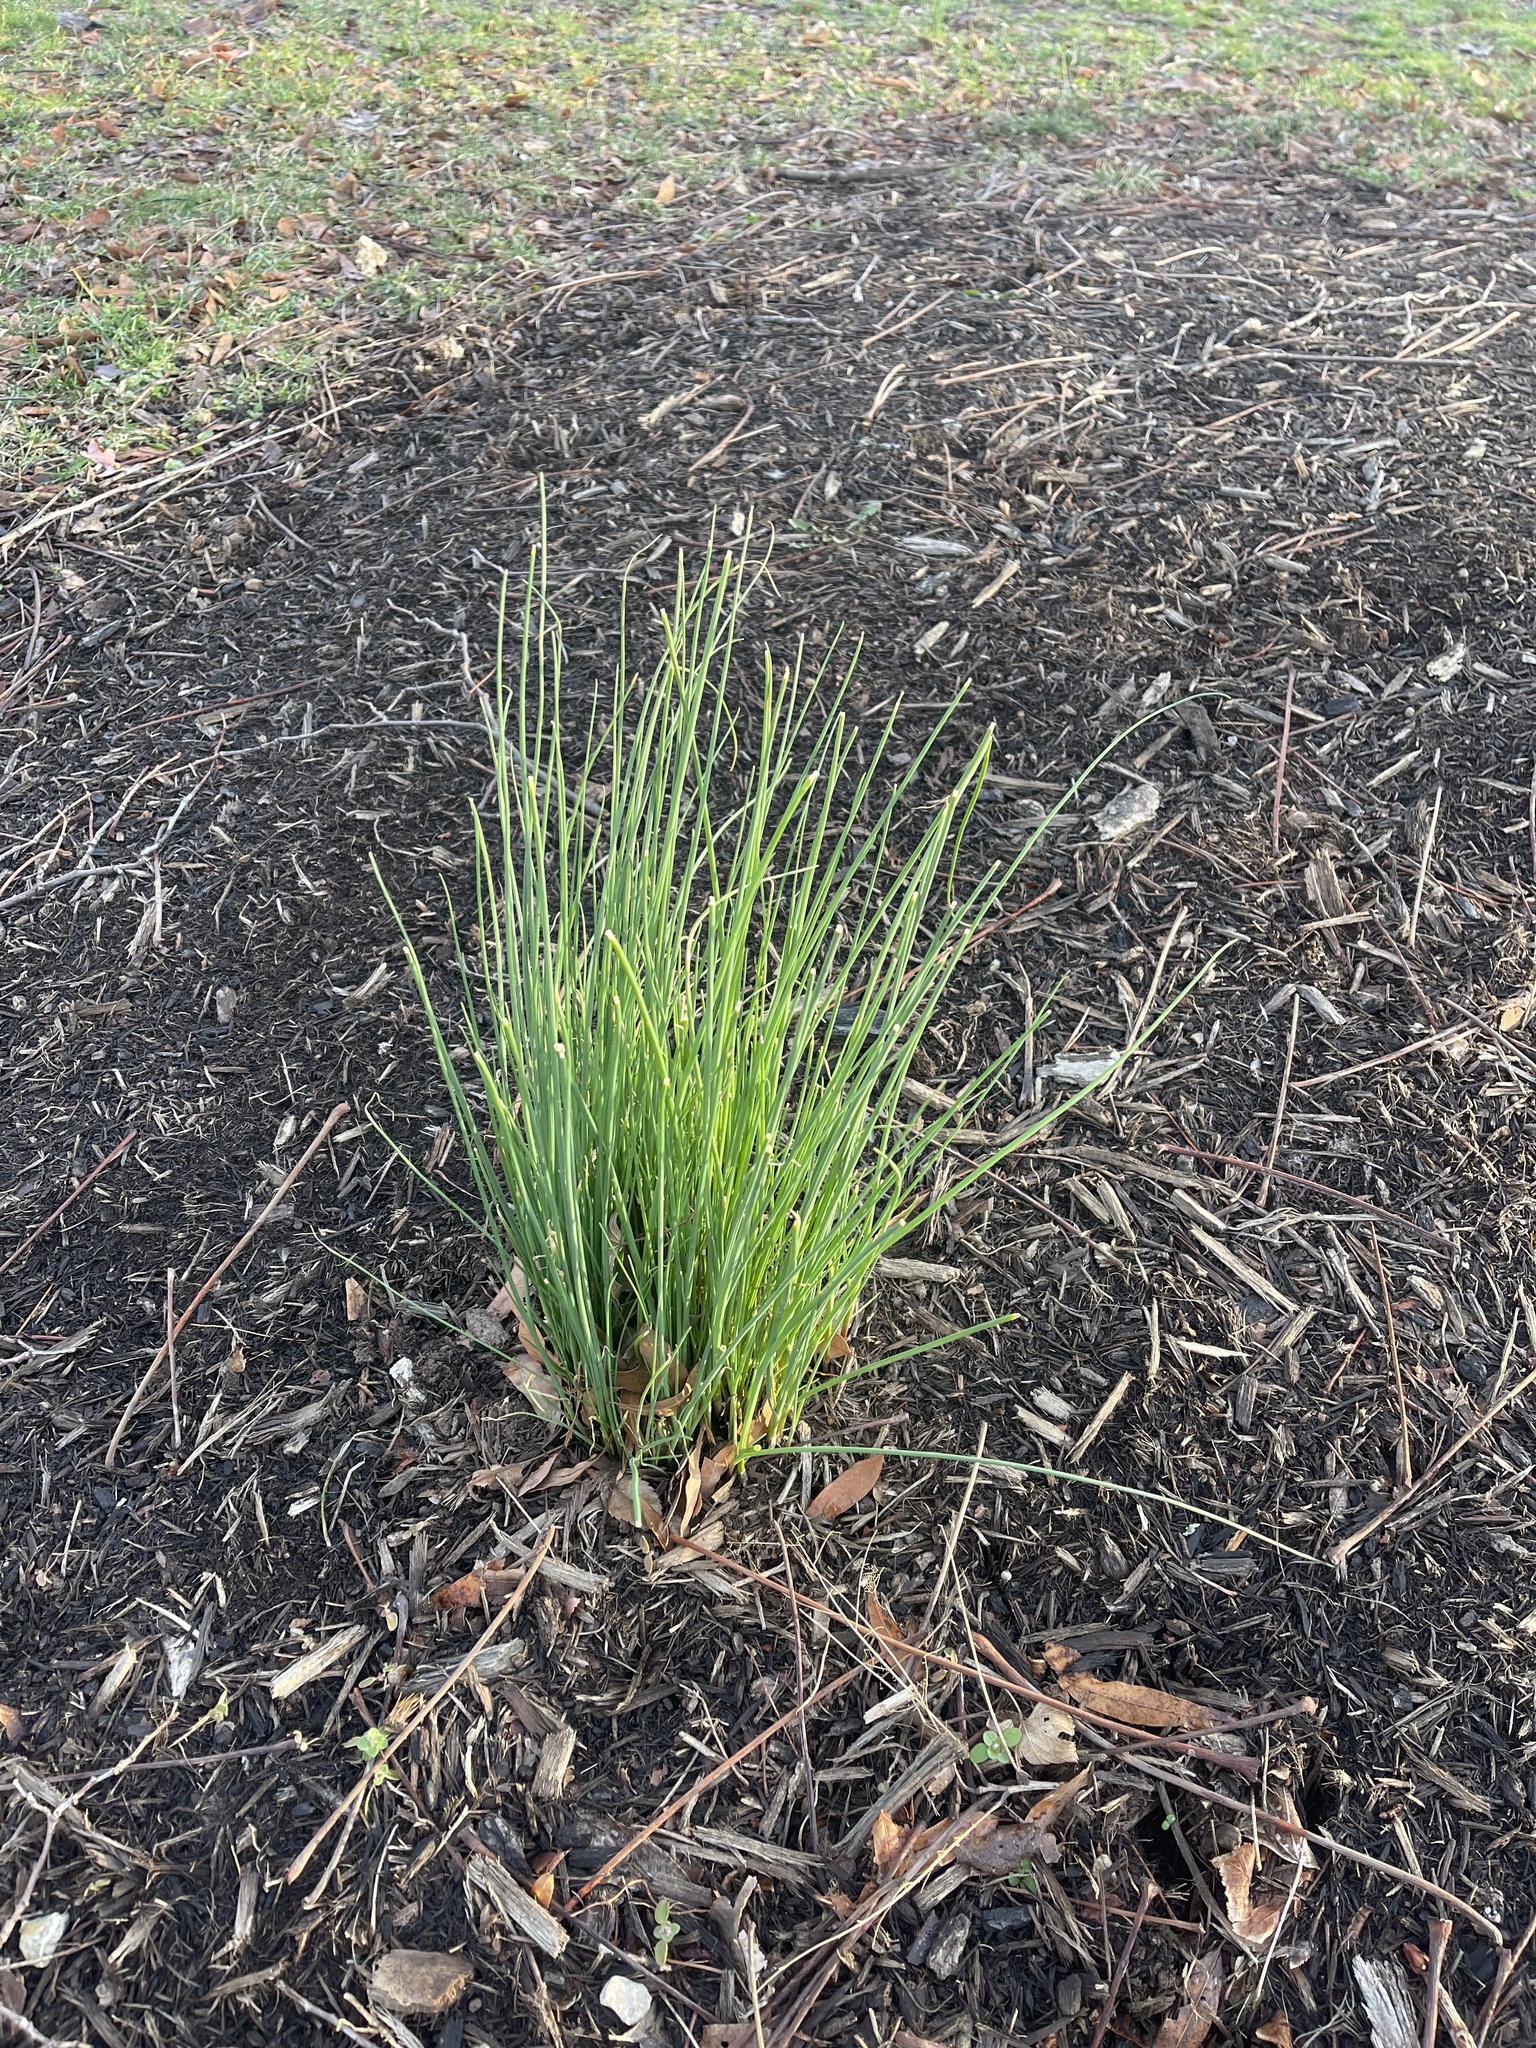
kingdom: Plantae
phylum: Tracheophyta
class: Liliopsida
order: Asparagales
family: Amaryllidaceae
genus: Allium
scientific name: Allium vineale
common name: Crow garlic
